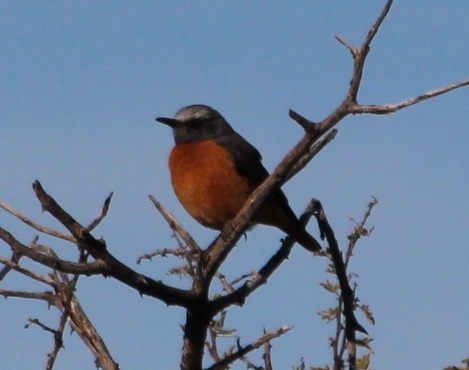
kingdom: Animalia
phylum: Chordata
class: Aves
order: Passeriformes
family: Muscicapidae
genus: Monticola
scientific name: Monticola brevipes
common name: Short-toed rock thrush
